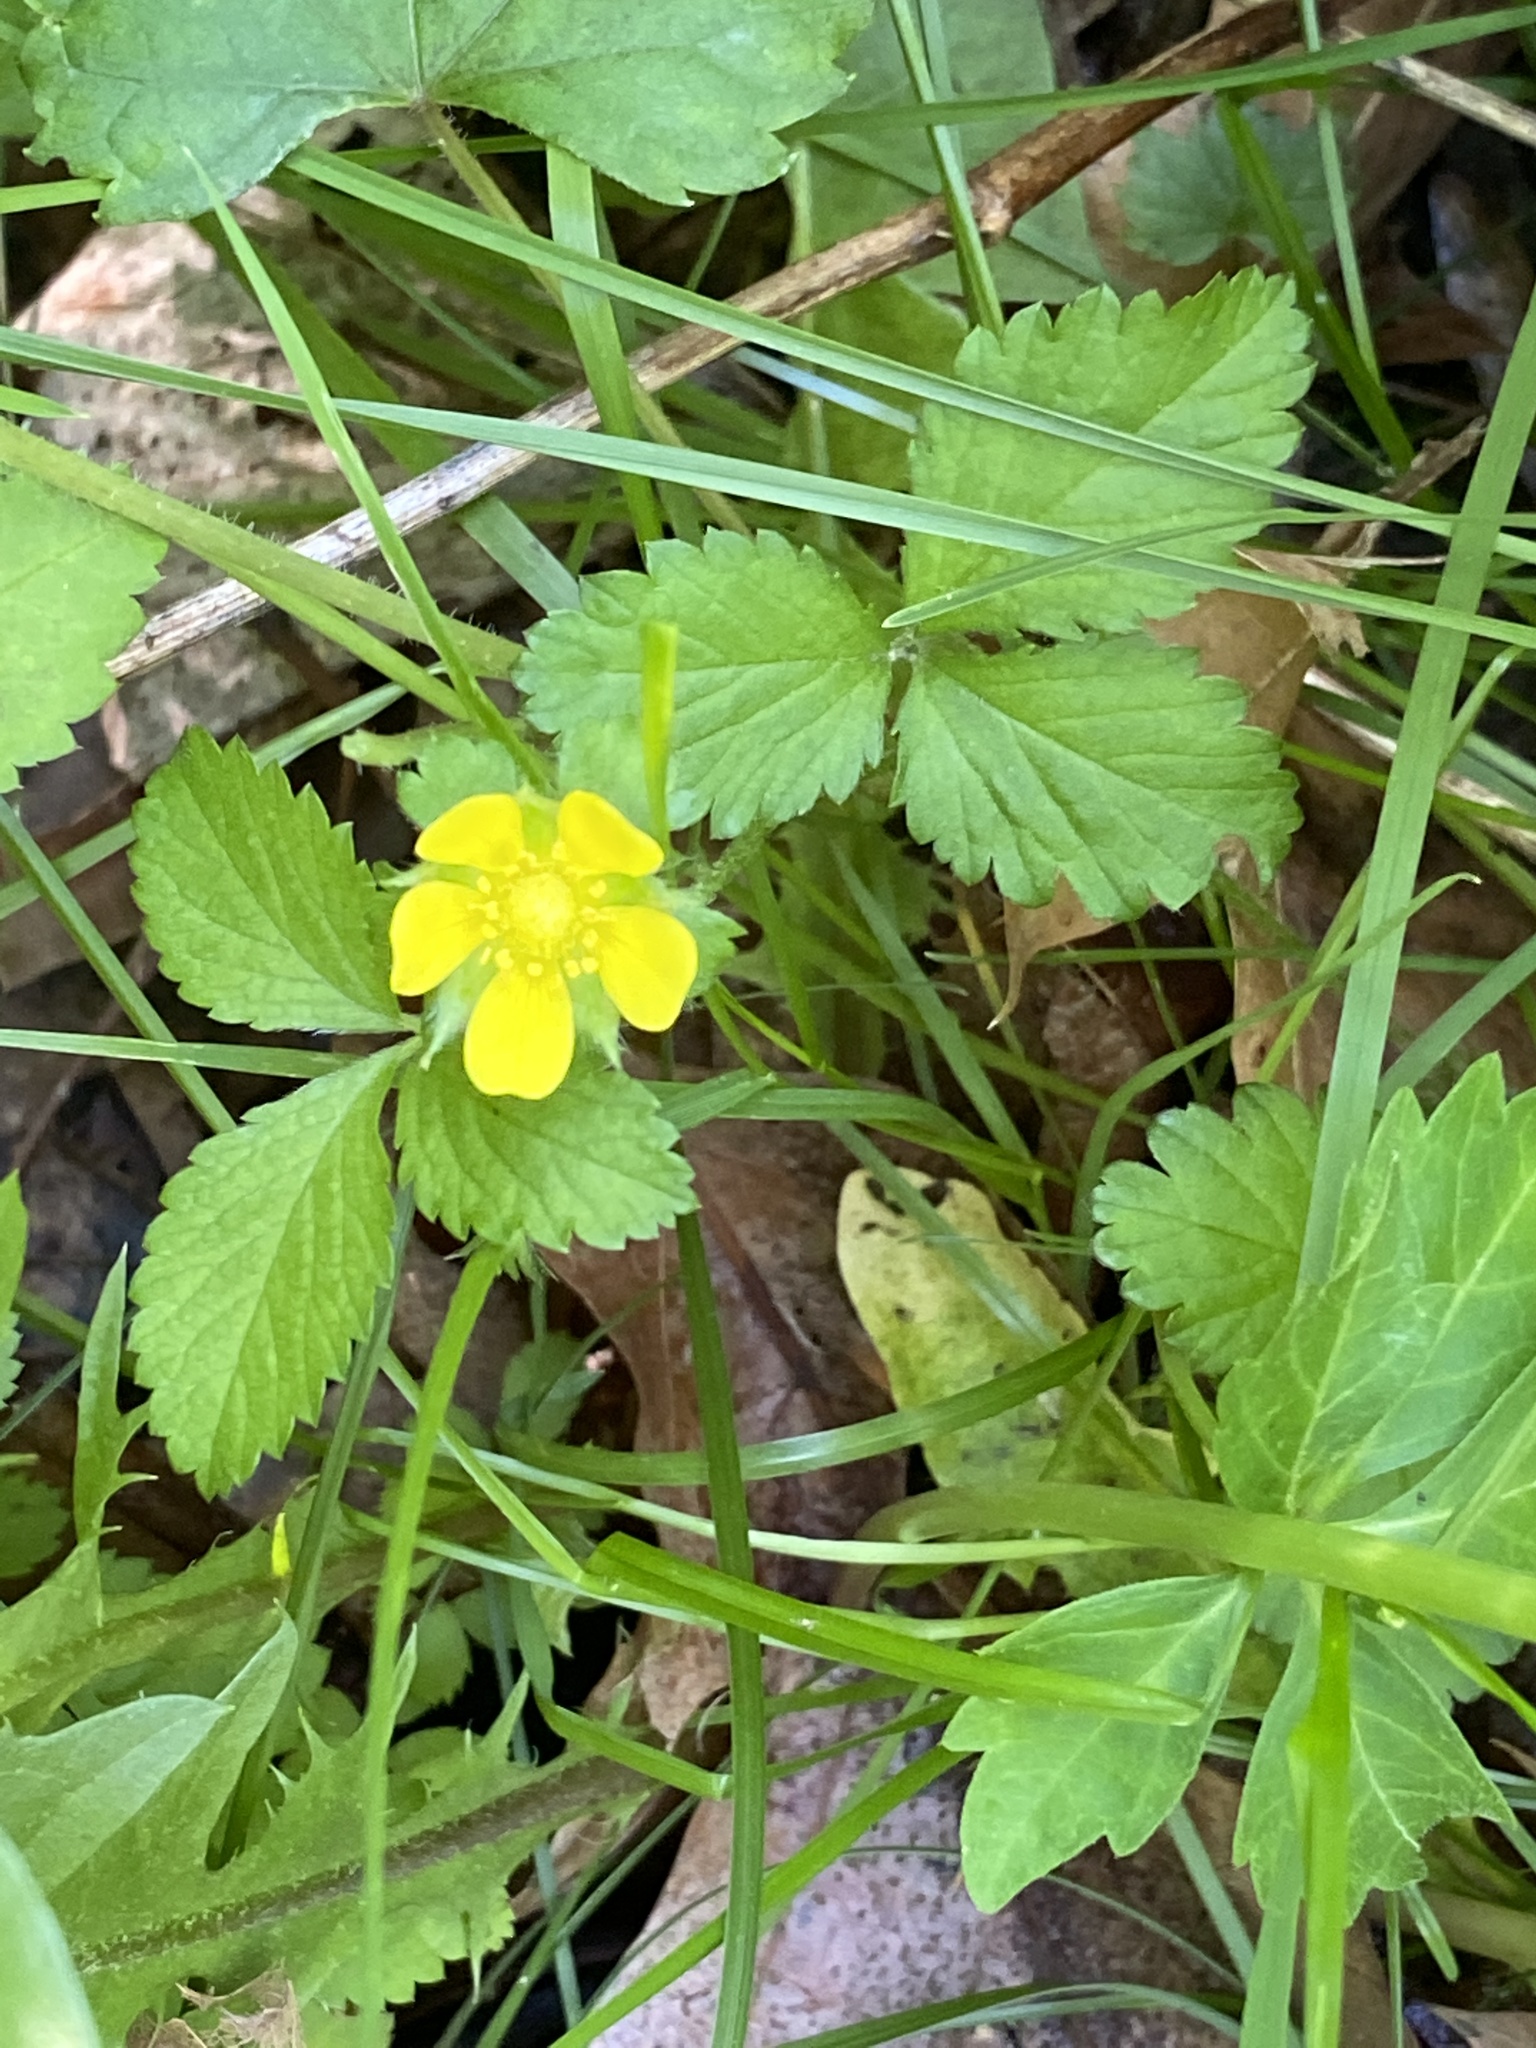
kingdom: Plantae
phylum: Tracheophyta
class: Magnoliopsida
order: Rosales
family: Rosaceae
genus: Potentilla
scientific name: Potentilla indica
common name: Yellow-flowered strawberry
